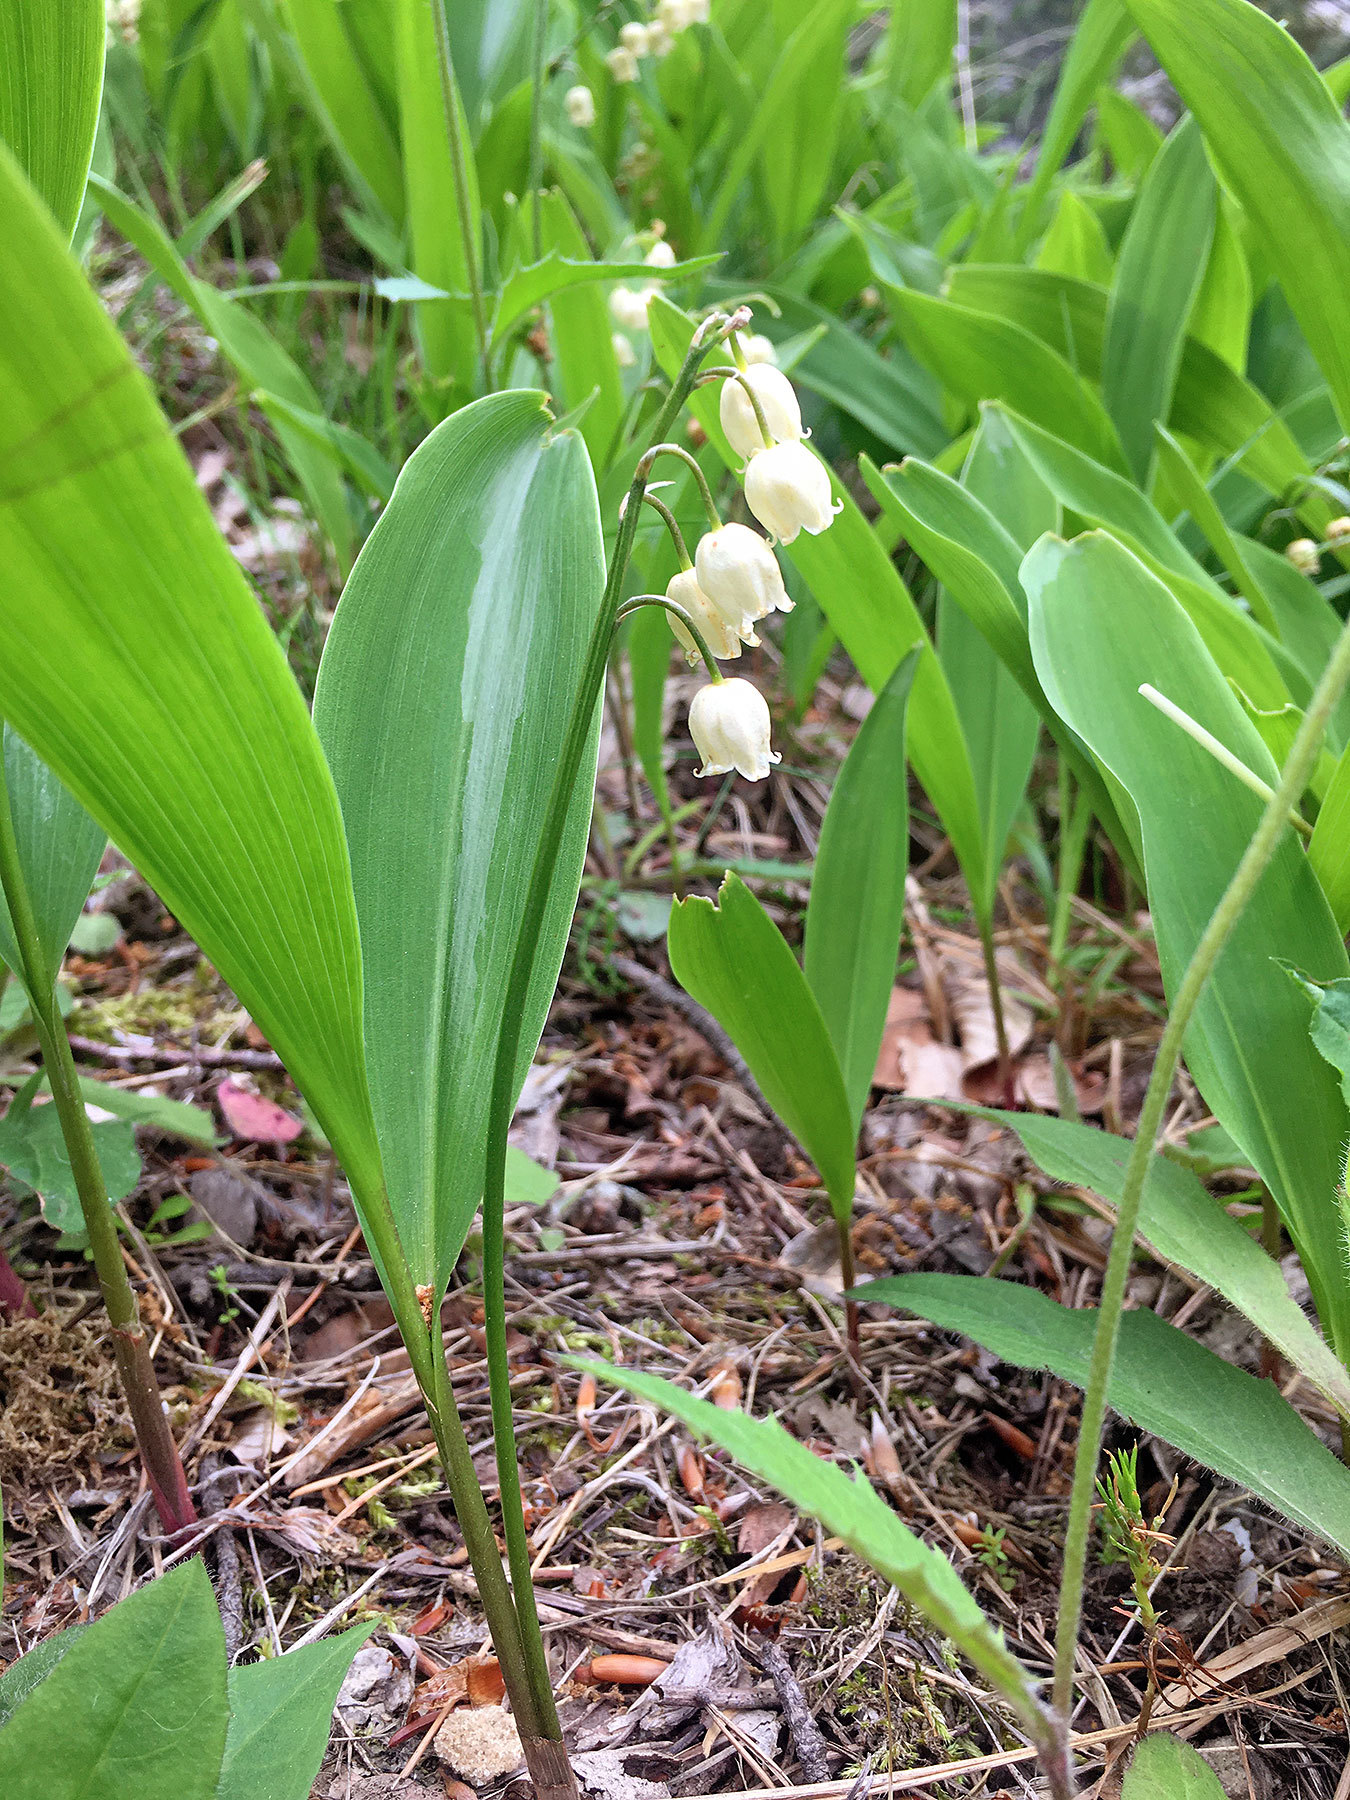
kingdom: Plantae
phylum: Tracheophyta
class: Liliopsida
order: Asparagales
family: Asparagaceae
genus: Convallaria
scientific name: Convallaria majalis
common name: Lily-of-the-valley
